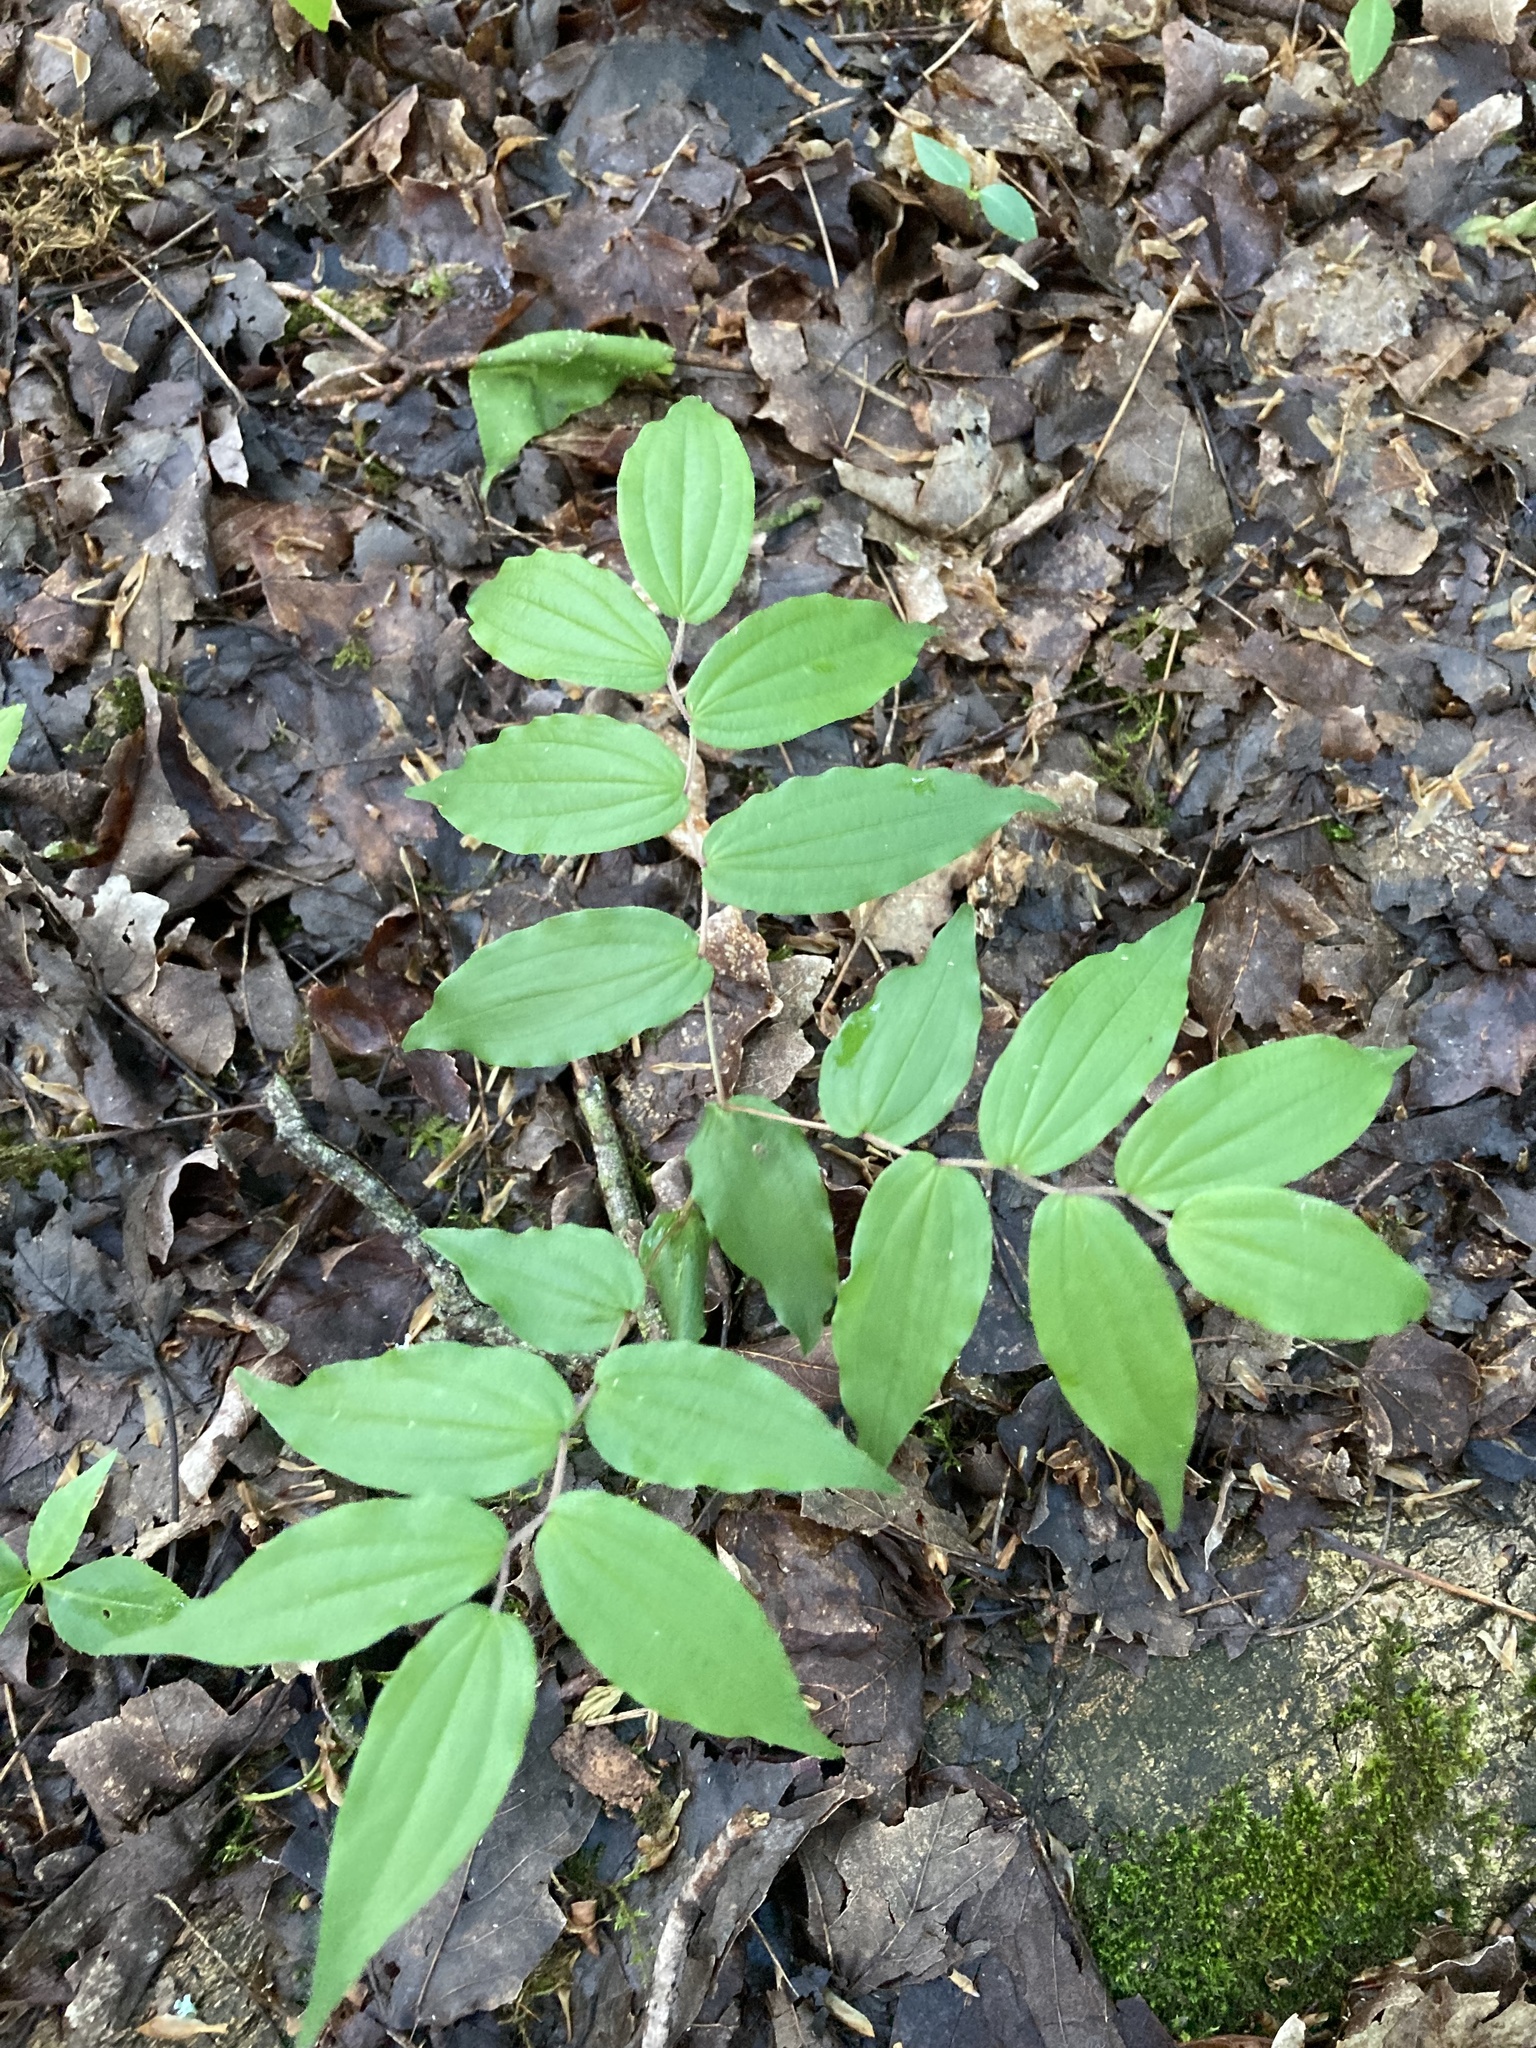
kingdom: Plantae
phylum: Tracheophyta
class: Liliopsida
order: Liliales
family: Liliaceae
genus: Prosartes
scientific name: Prosartes lanuginosa
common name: Hairy mandarin
